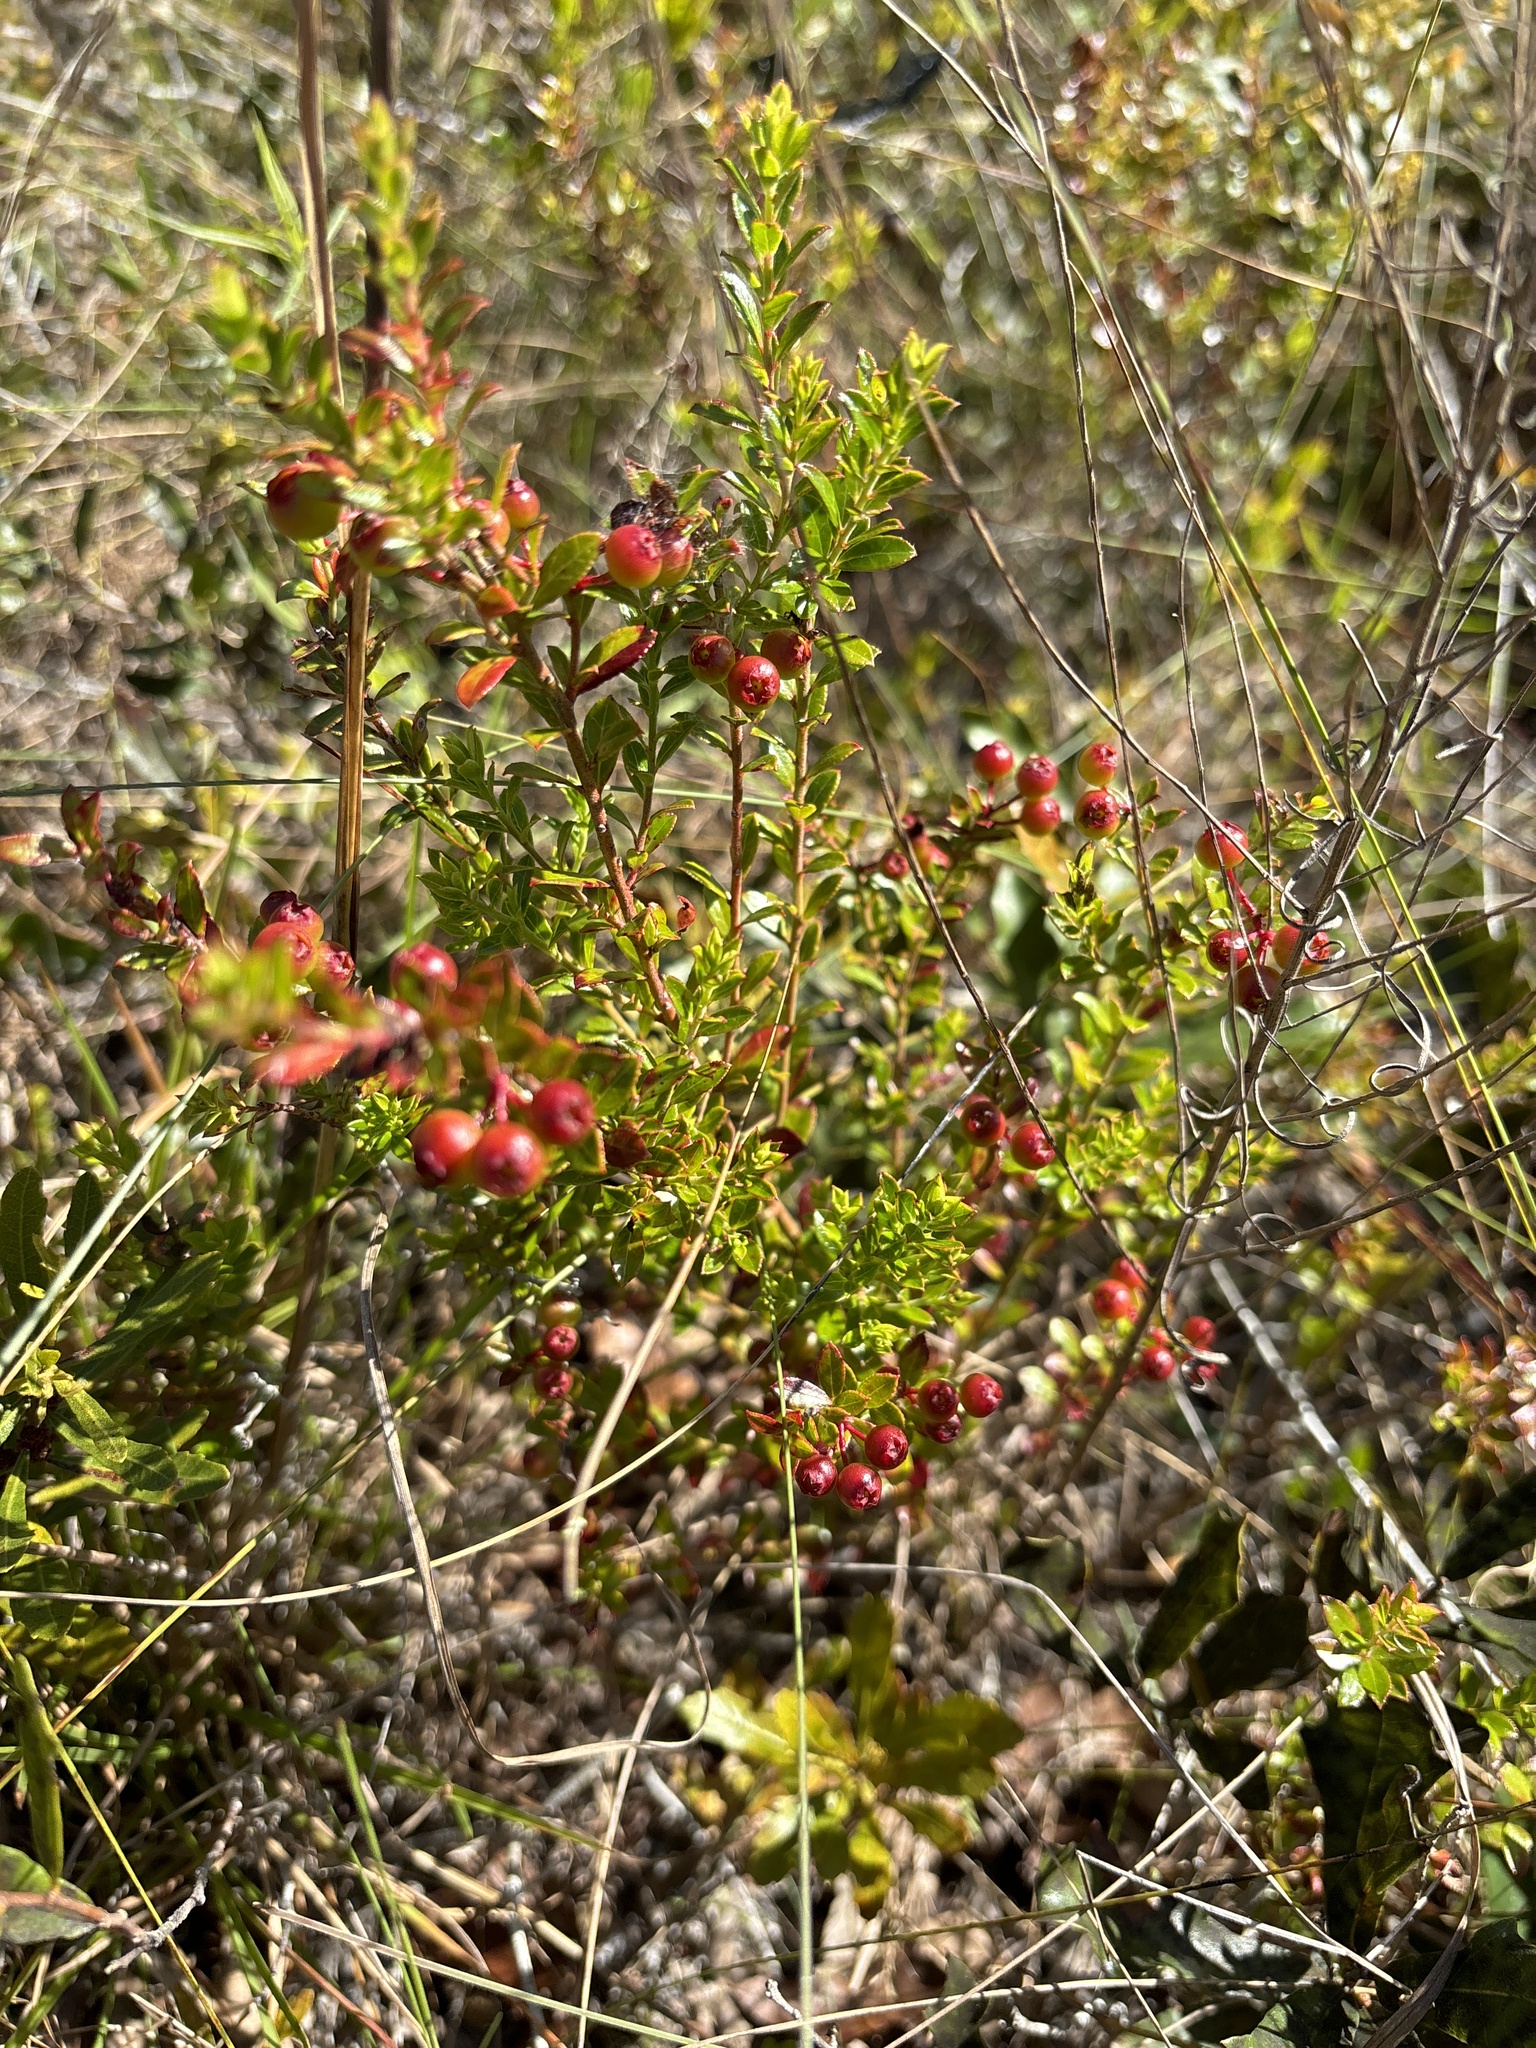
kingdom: Plantae
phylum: Tracheophyta
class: Magnoliopsida
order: Ericales
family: Ericaceae
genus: Vaccinium
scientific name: Vaccinium myrsinites
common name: Evergreen blueberry
